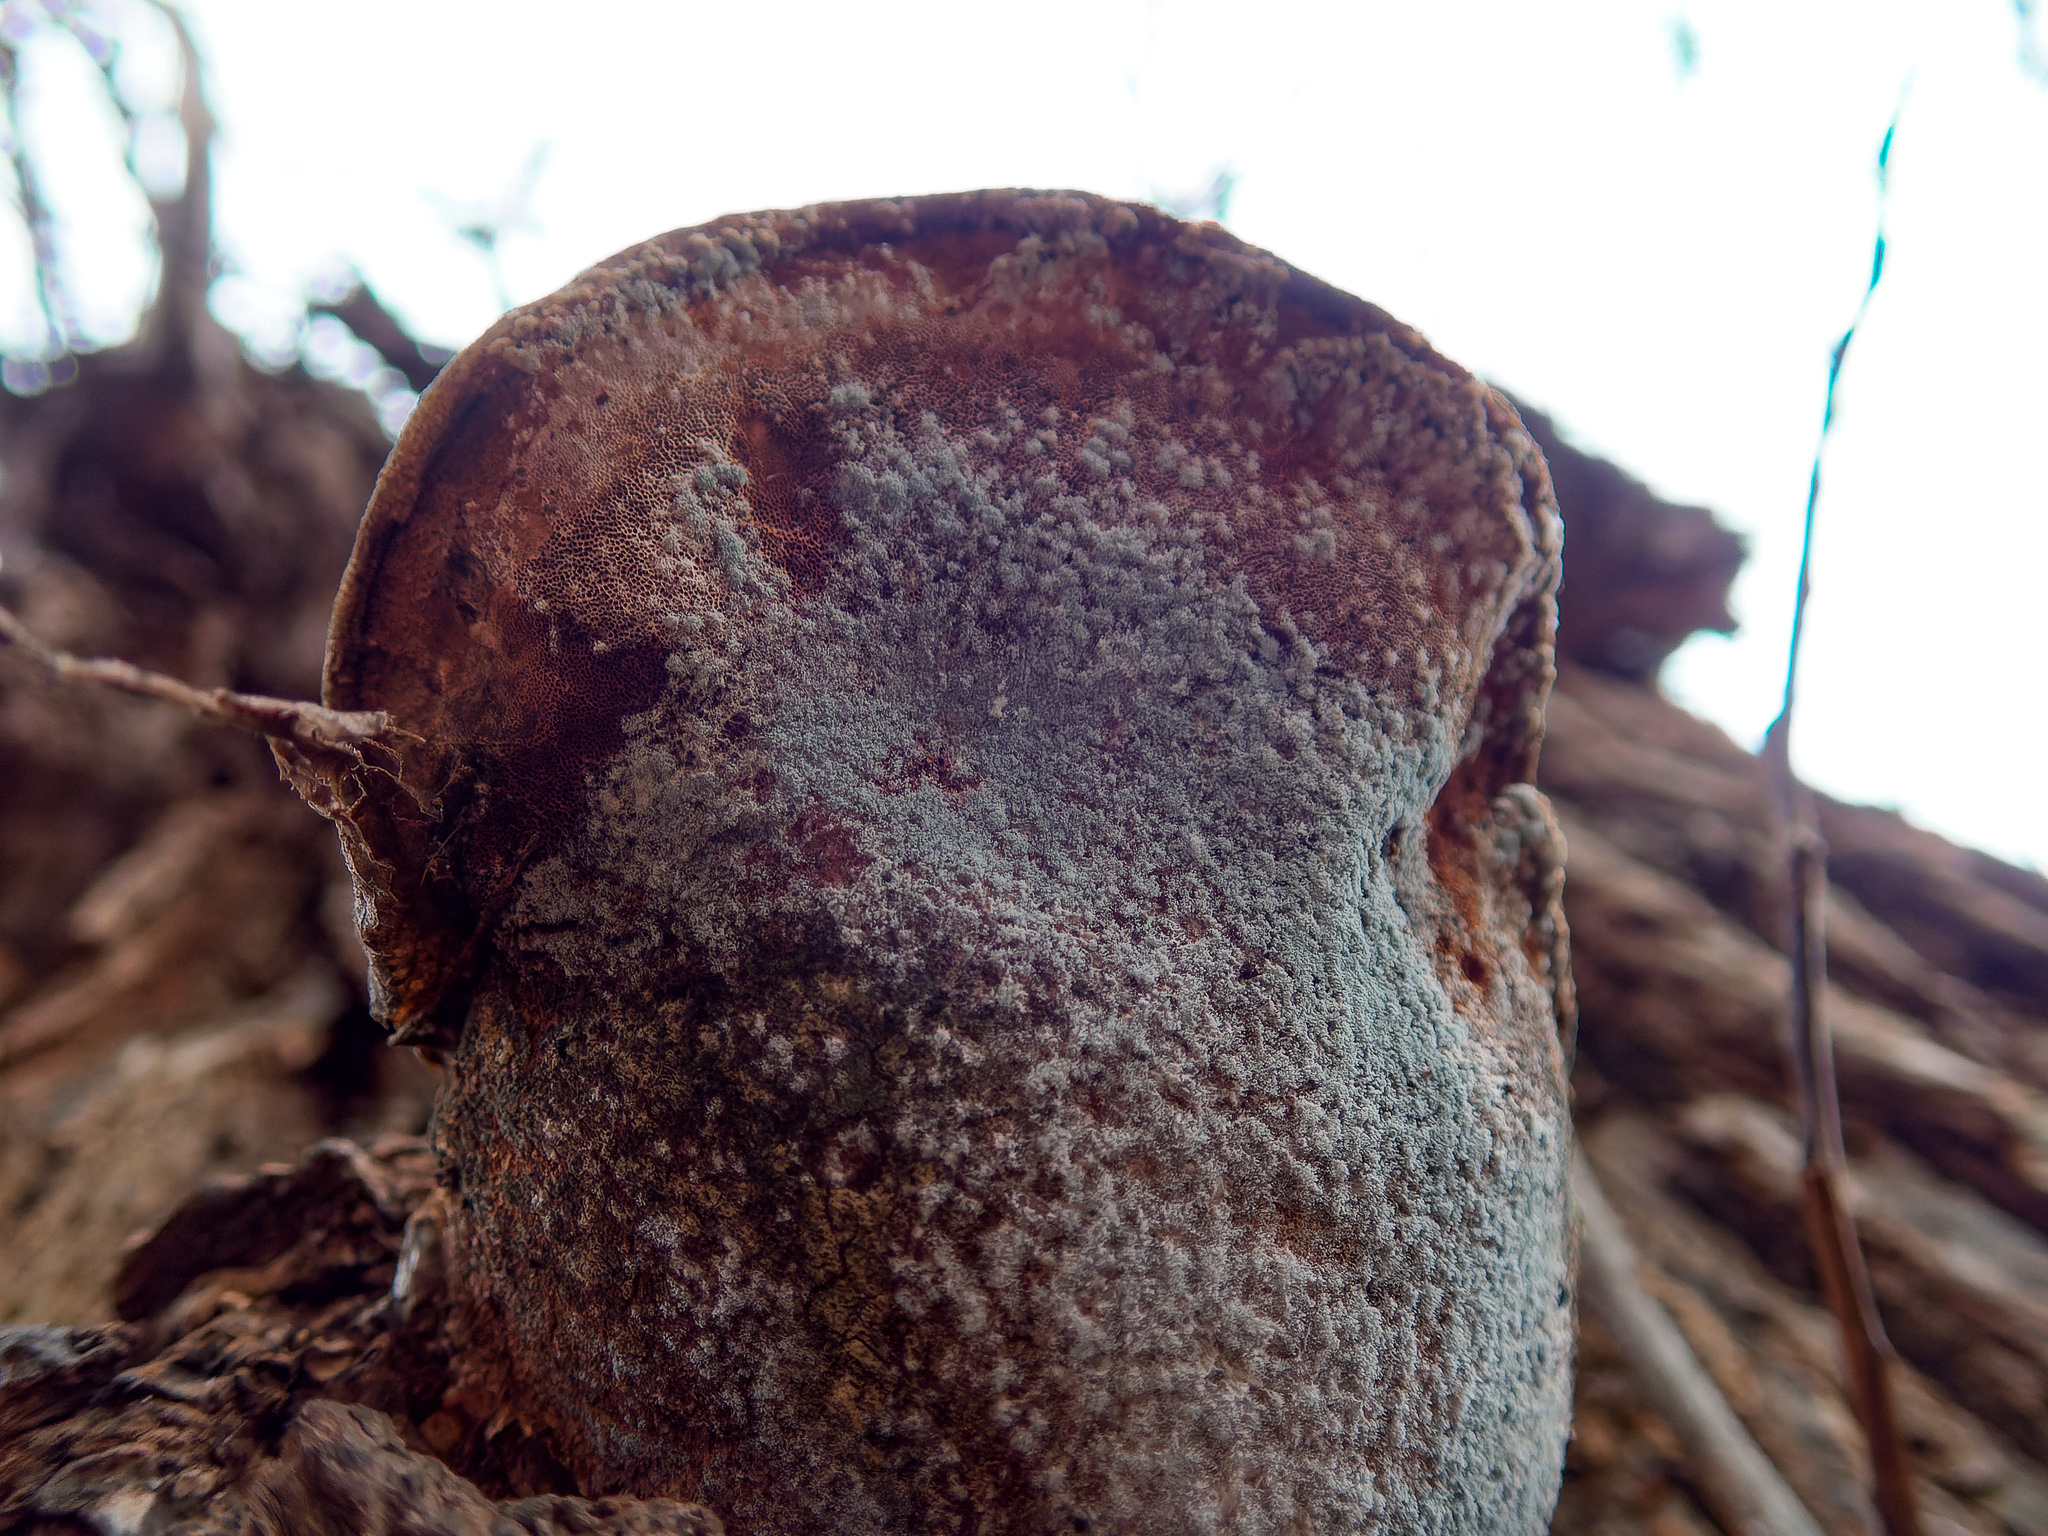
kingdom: Fungi
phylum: Basidiomycota
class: Agaricomycetes
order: Polyporales
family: Polyporaceae
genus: Ganoderma
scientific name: Ganoderma resinaceum
